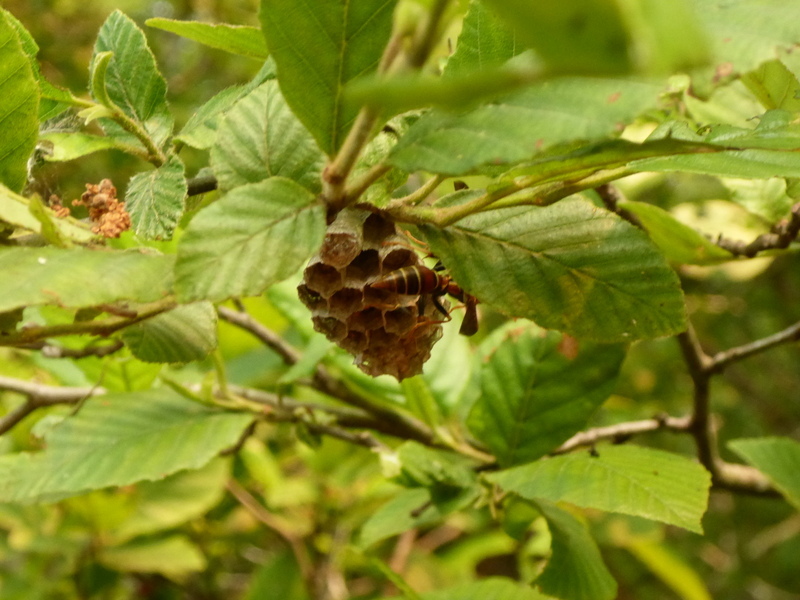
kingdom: Animalia
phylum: Arthropoda
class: Insecta
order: Hymenoptera
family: Eumenidae
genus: Polistes
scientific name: Polistes bahamensis
